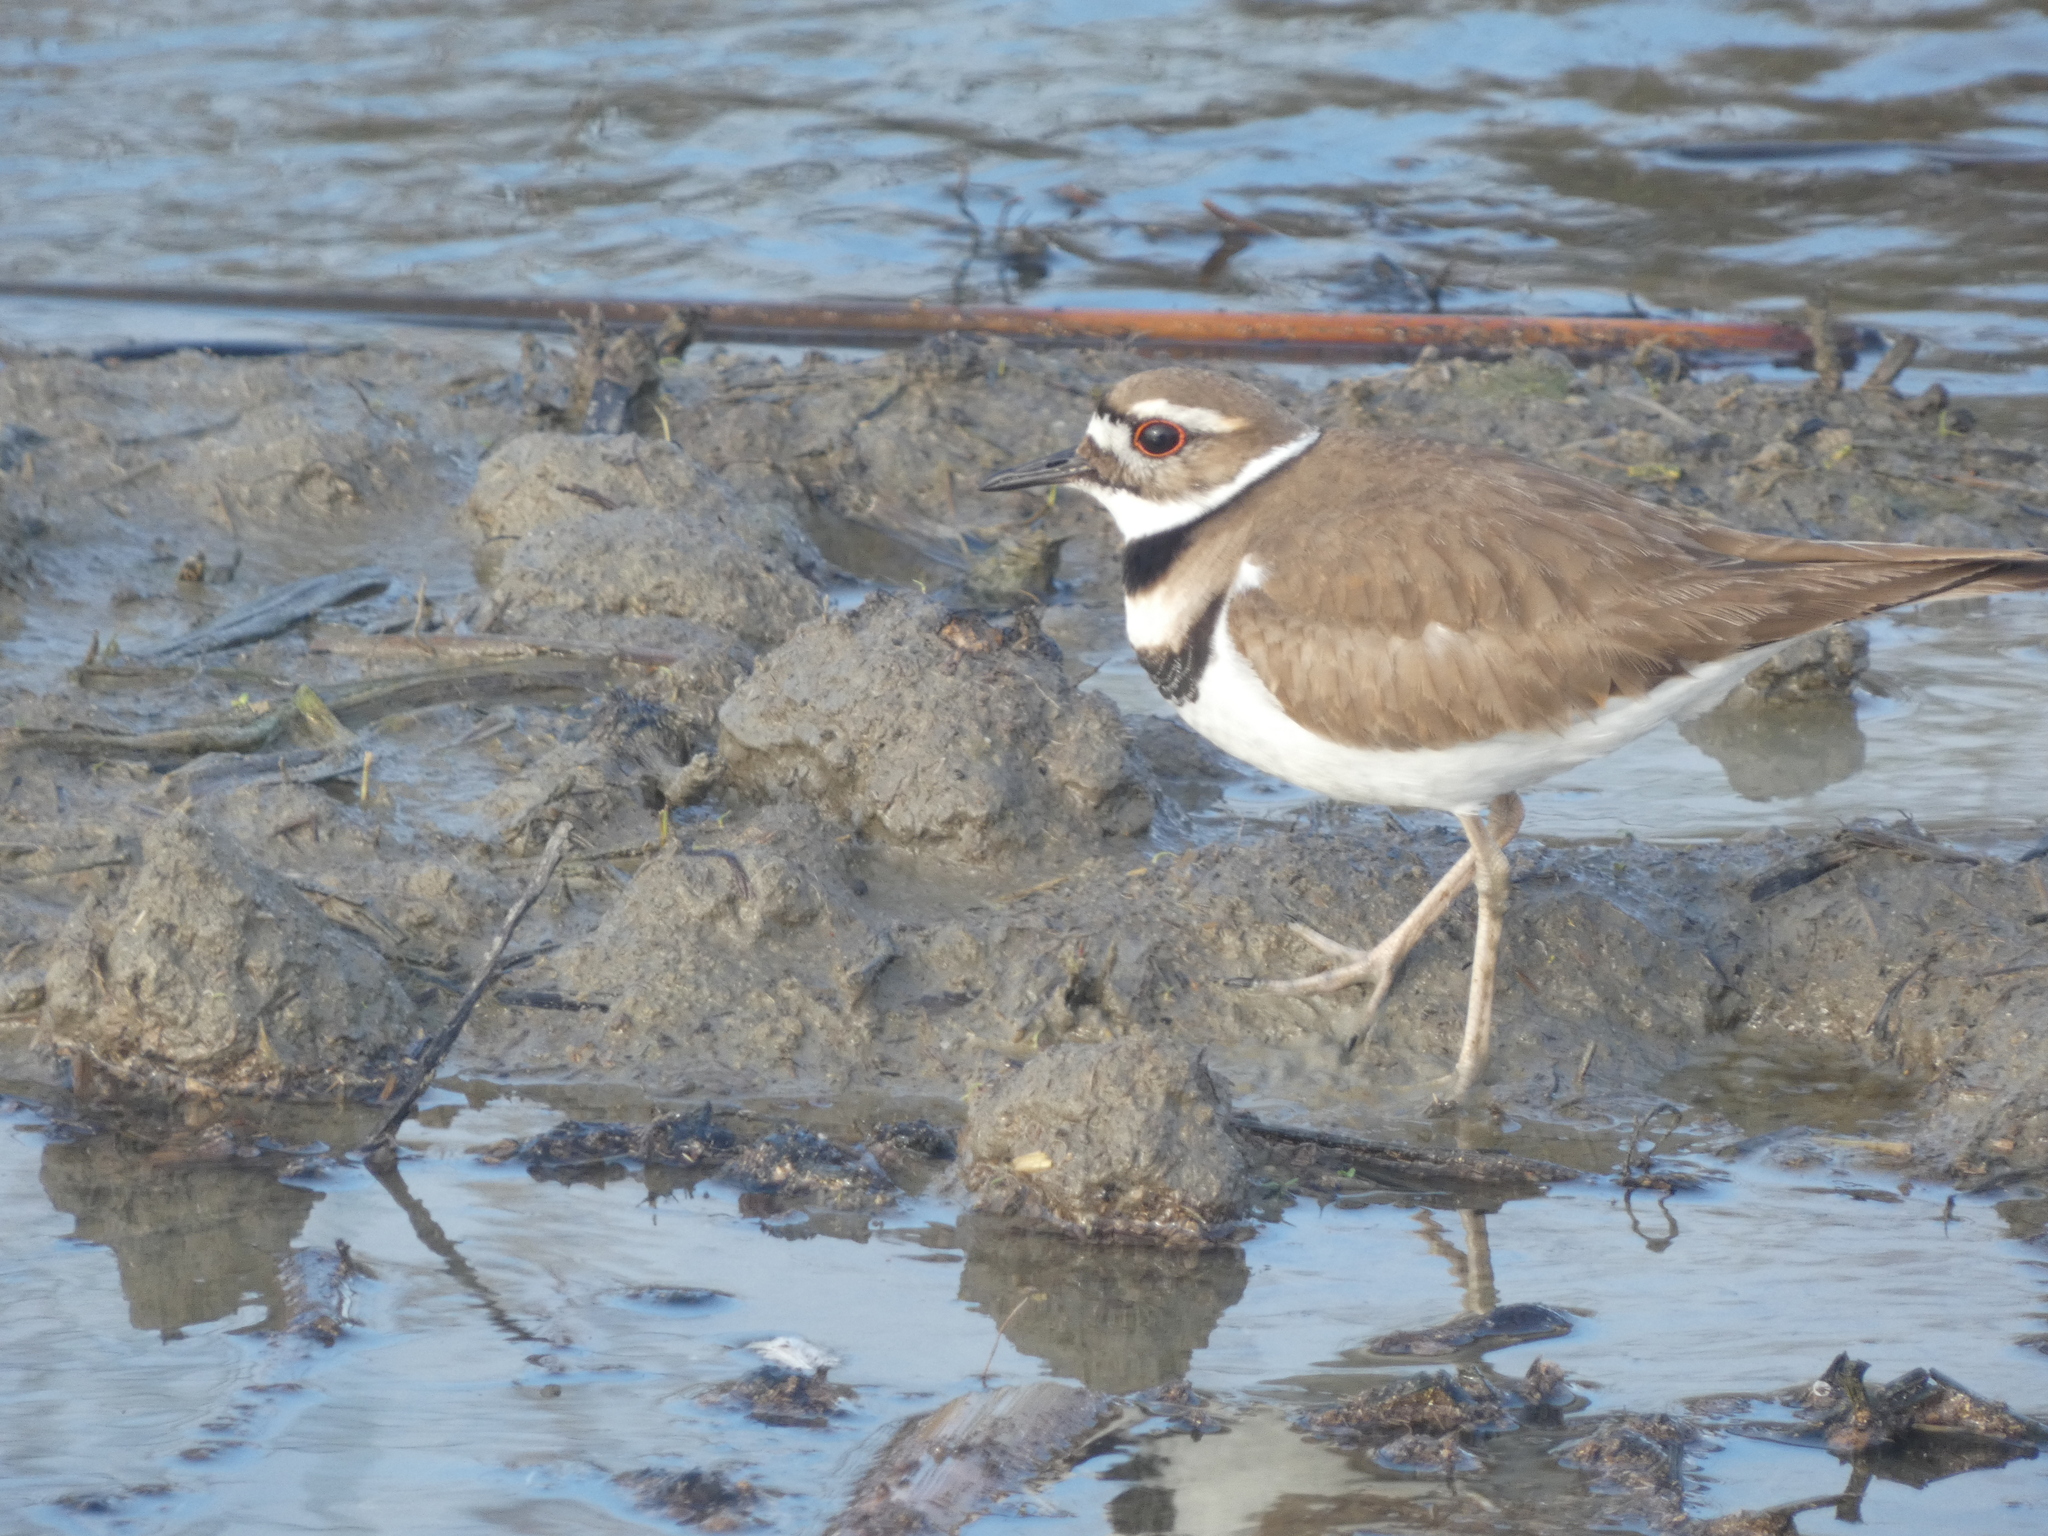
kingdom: Animalia
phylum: Chordata
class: Aves
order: Charadriiformes
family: Charadriidae
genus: Charadrius
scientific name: Charadrius vociferus
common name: Killdeer
